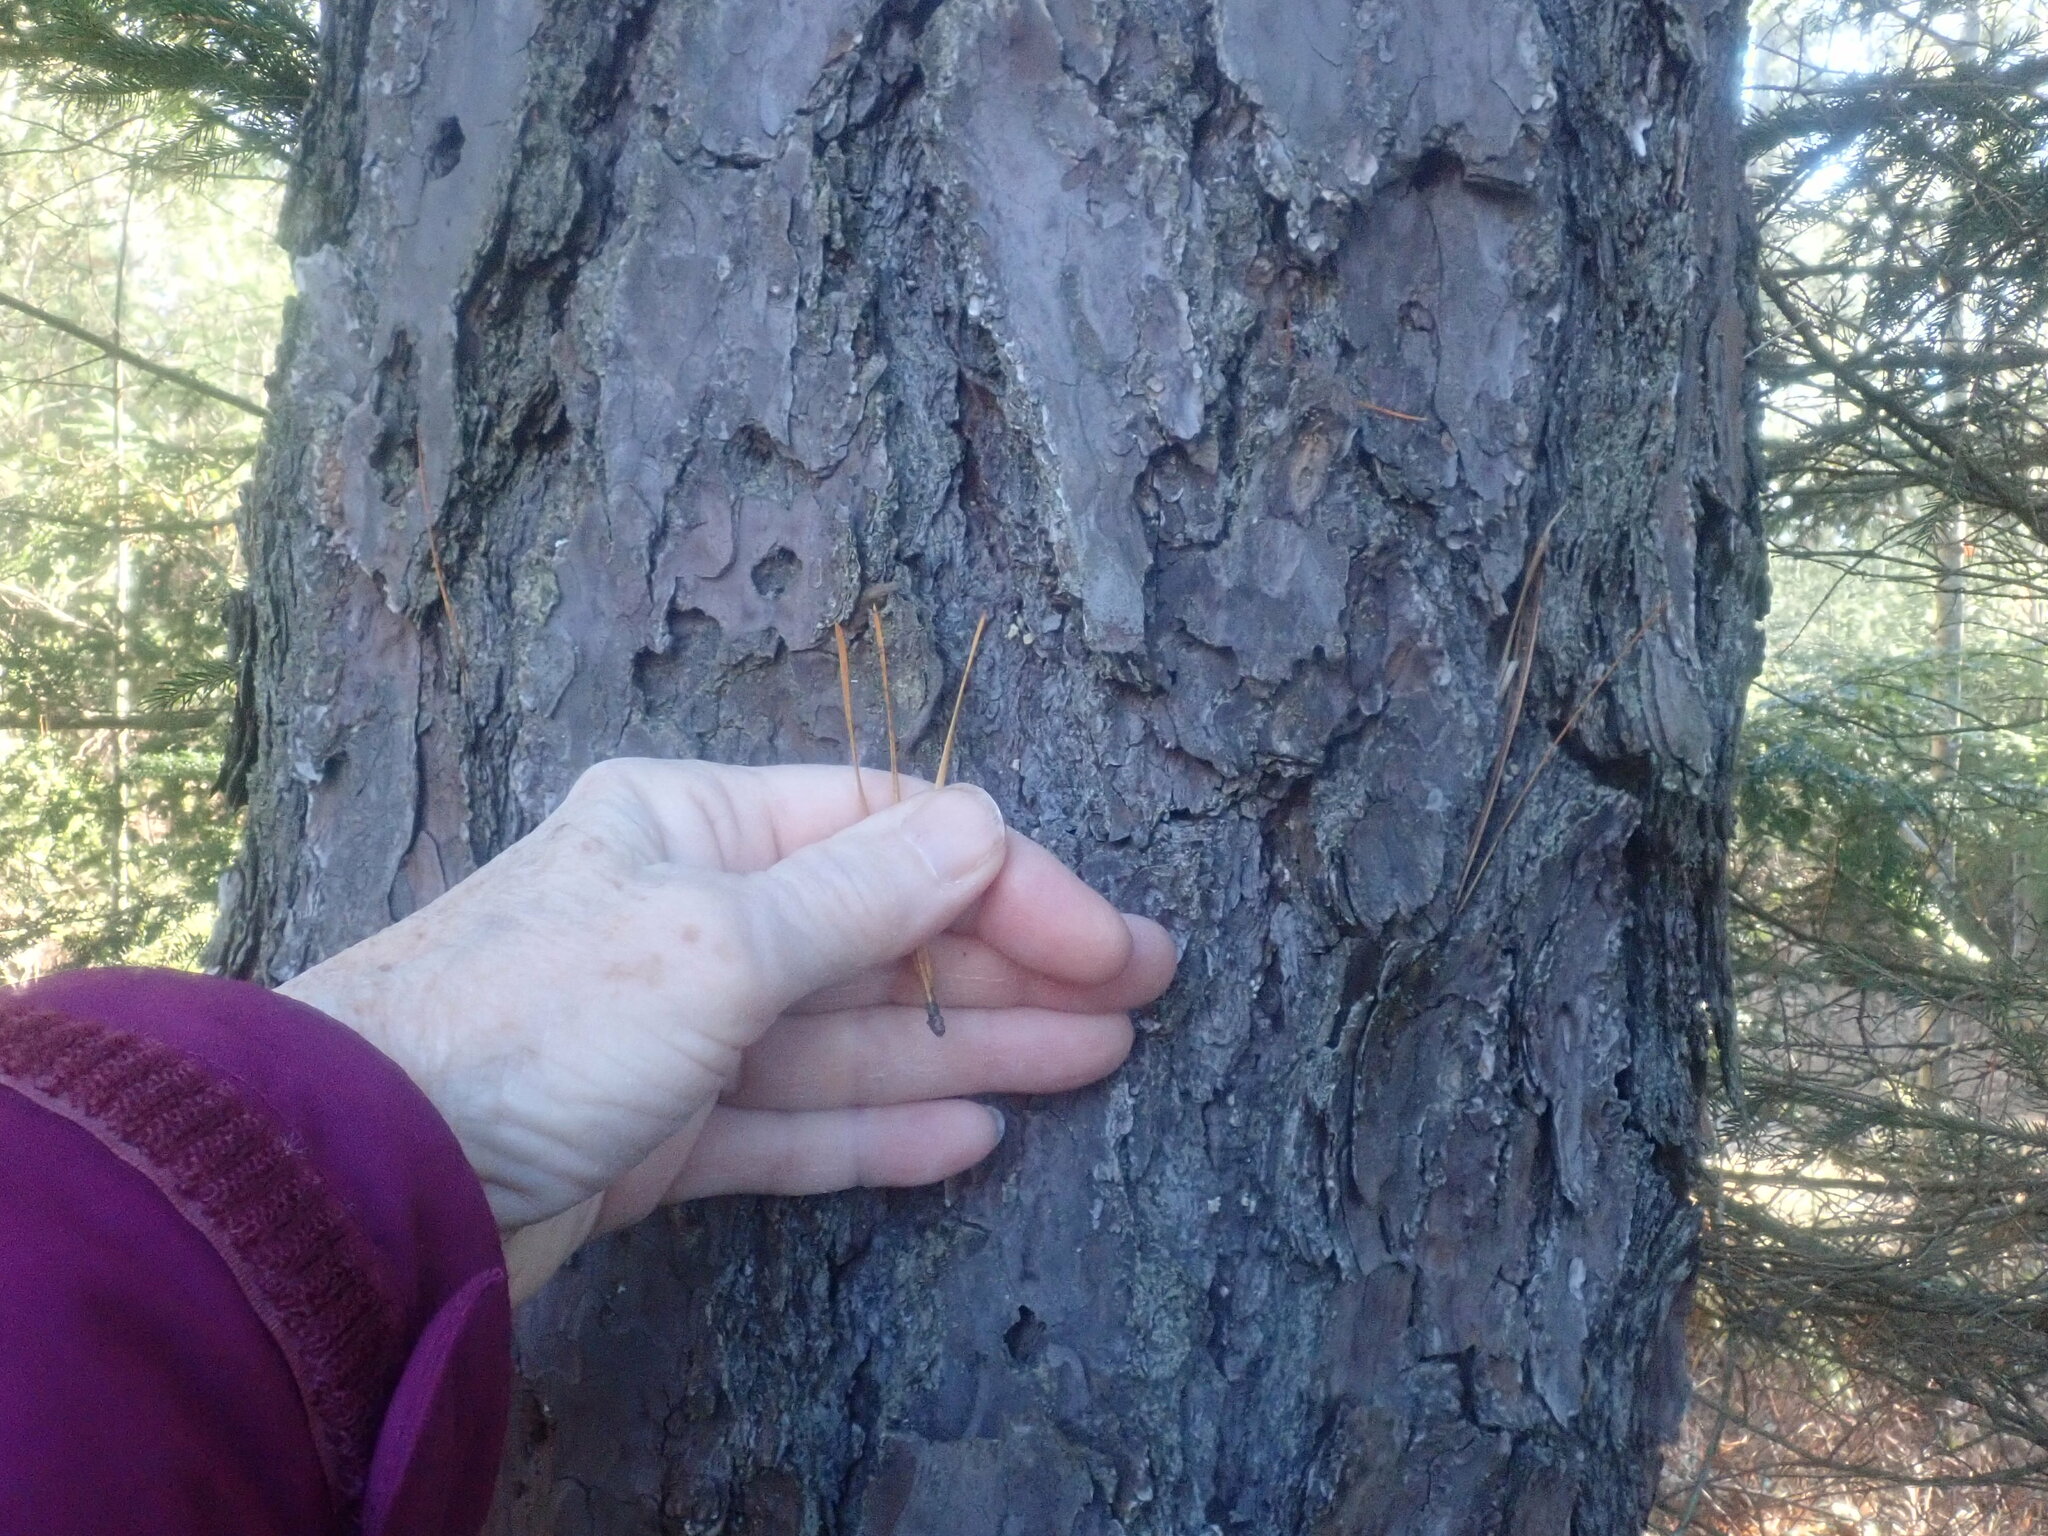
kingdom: Plantae
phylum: Tracheophyta
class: Pinopsida
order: Pinales
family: Pinaceae
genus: Pinus
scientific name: Pinus rigida
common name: Pitch pine
